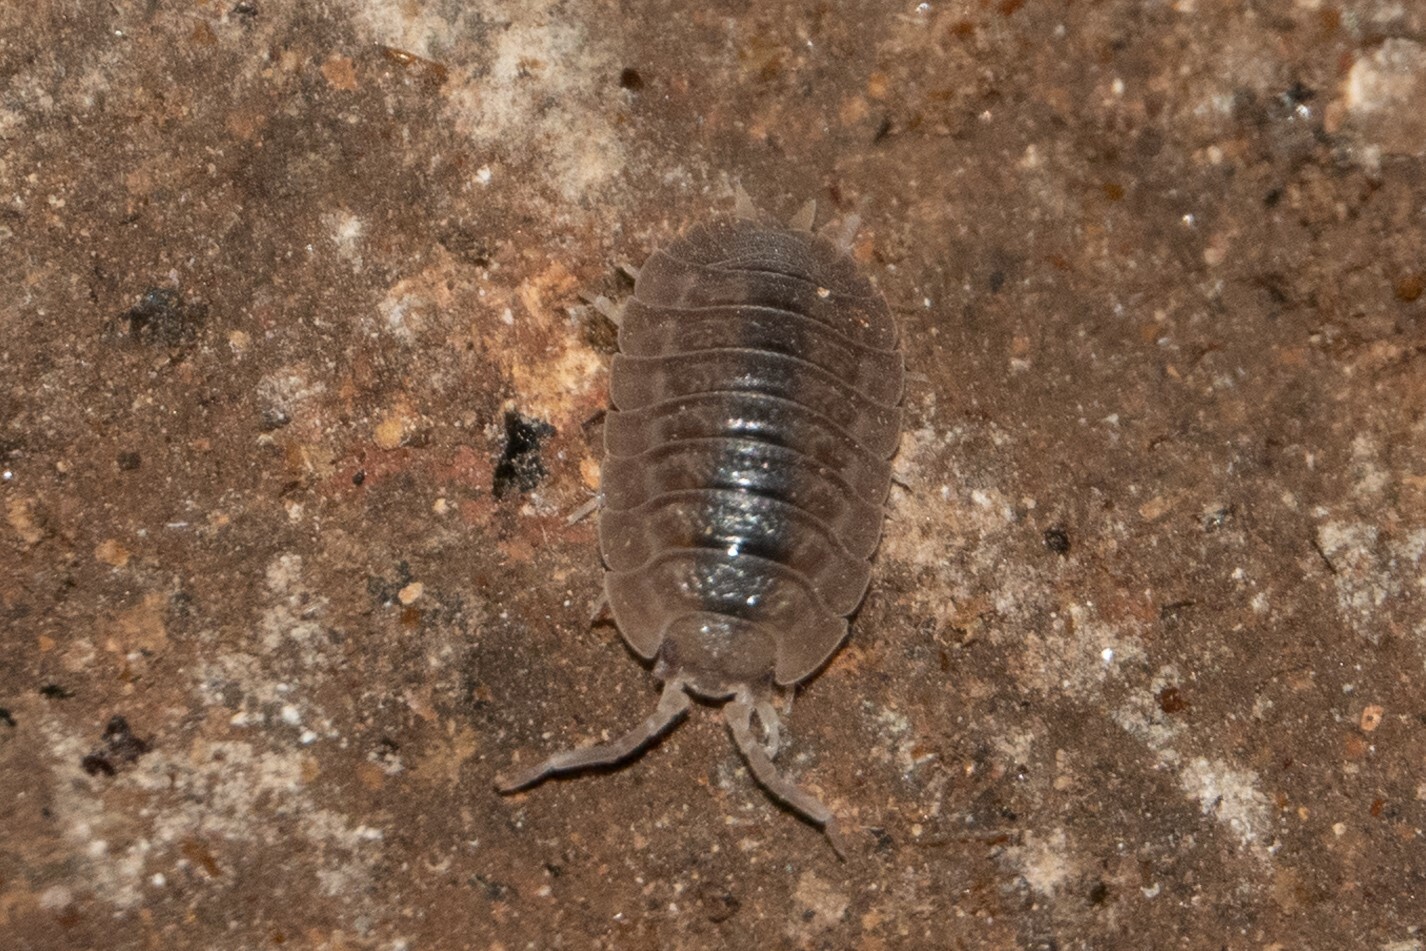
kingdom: Animalia
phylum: Arthropoda
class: Malacostraca
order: Isopoda
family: Porcellionidae
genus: Porcellio
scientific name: Porcellio dilatatus
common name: Isopod
